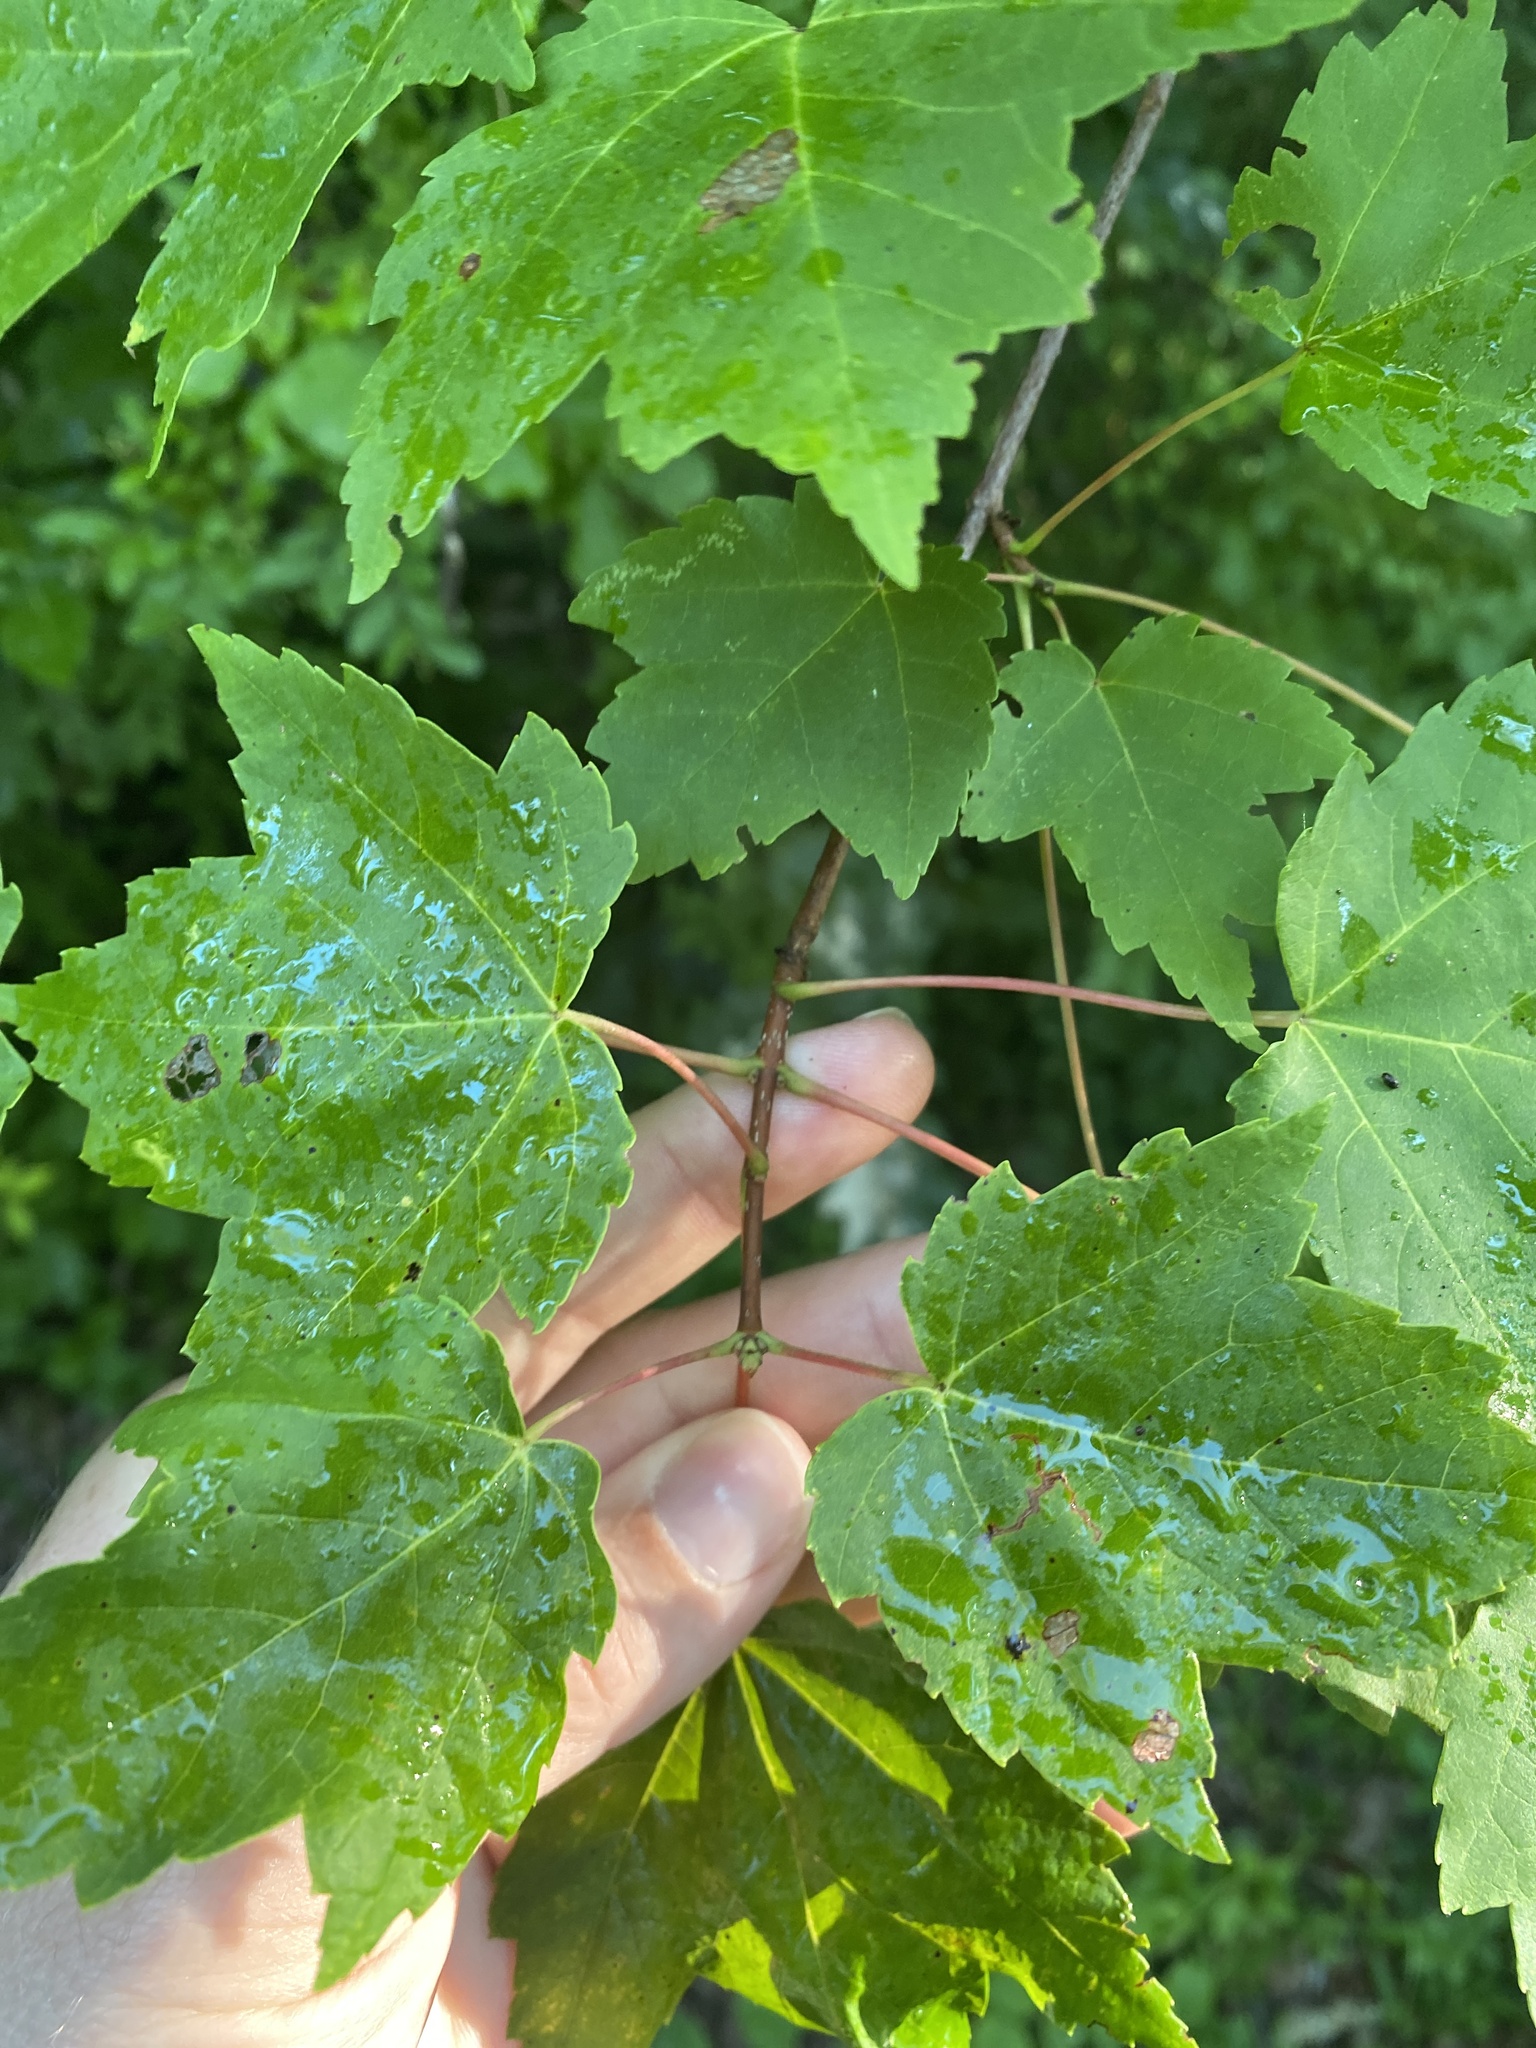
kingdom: Plantae
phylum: Tracheophyta
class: Magnoliopsida
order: Sapindales
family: Sapindaceae
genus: Acer
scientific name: Acer rubrum
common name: Red maple
